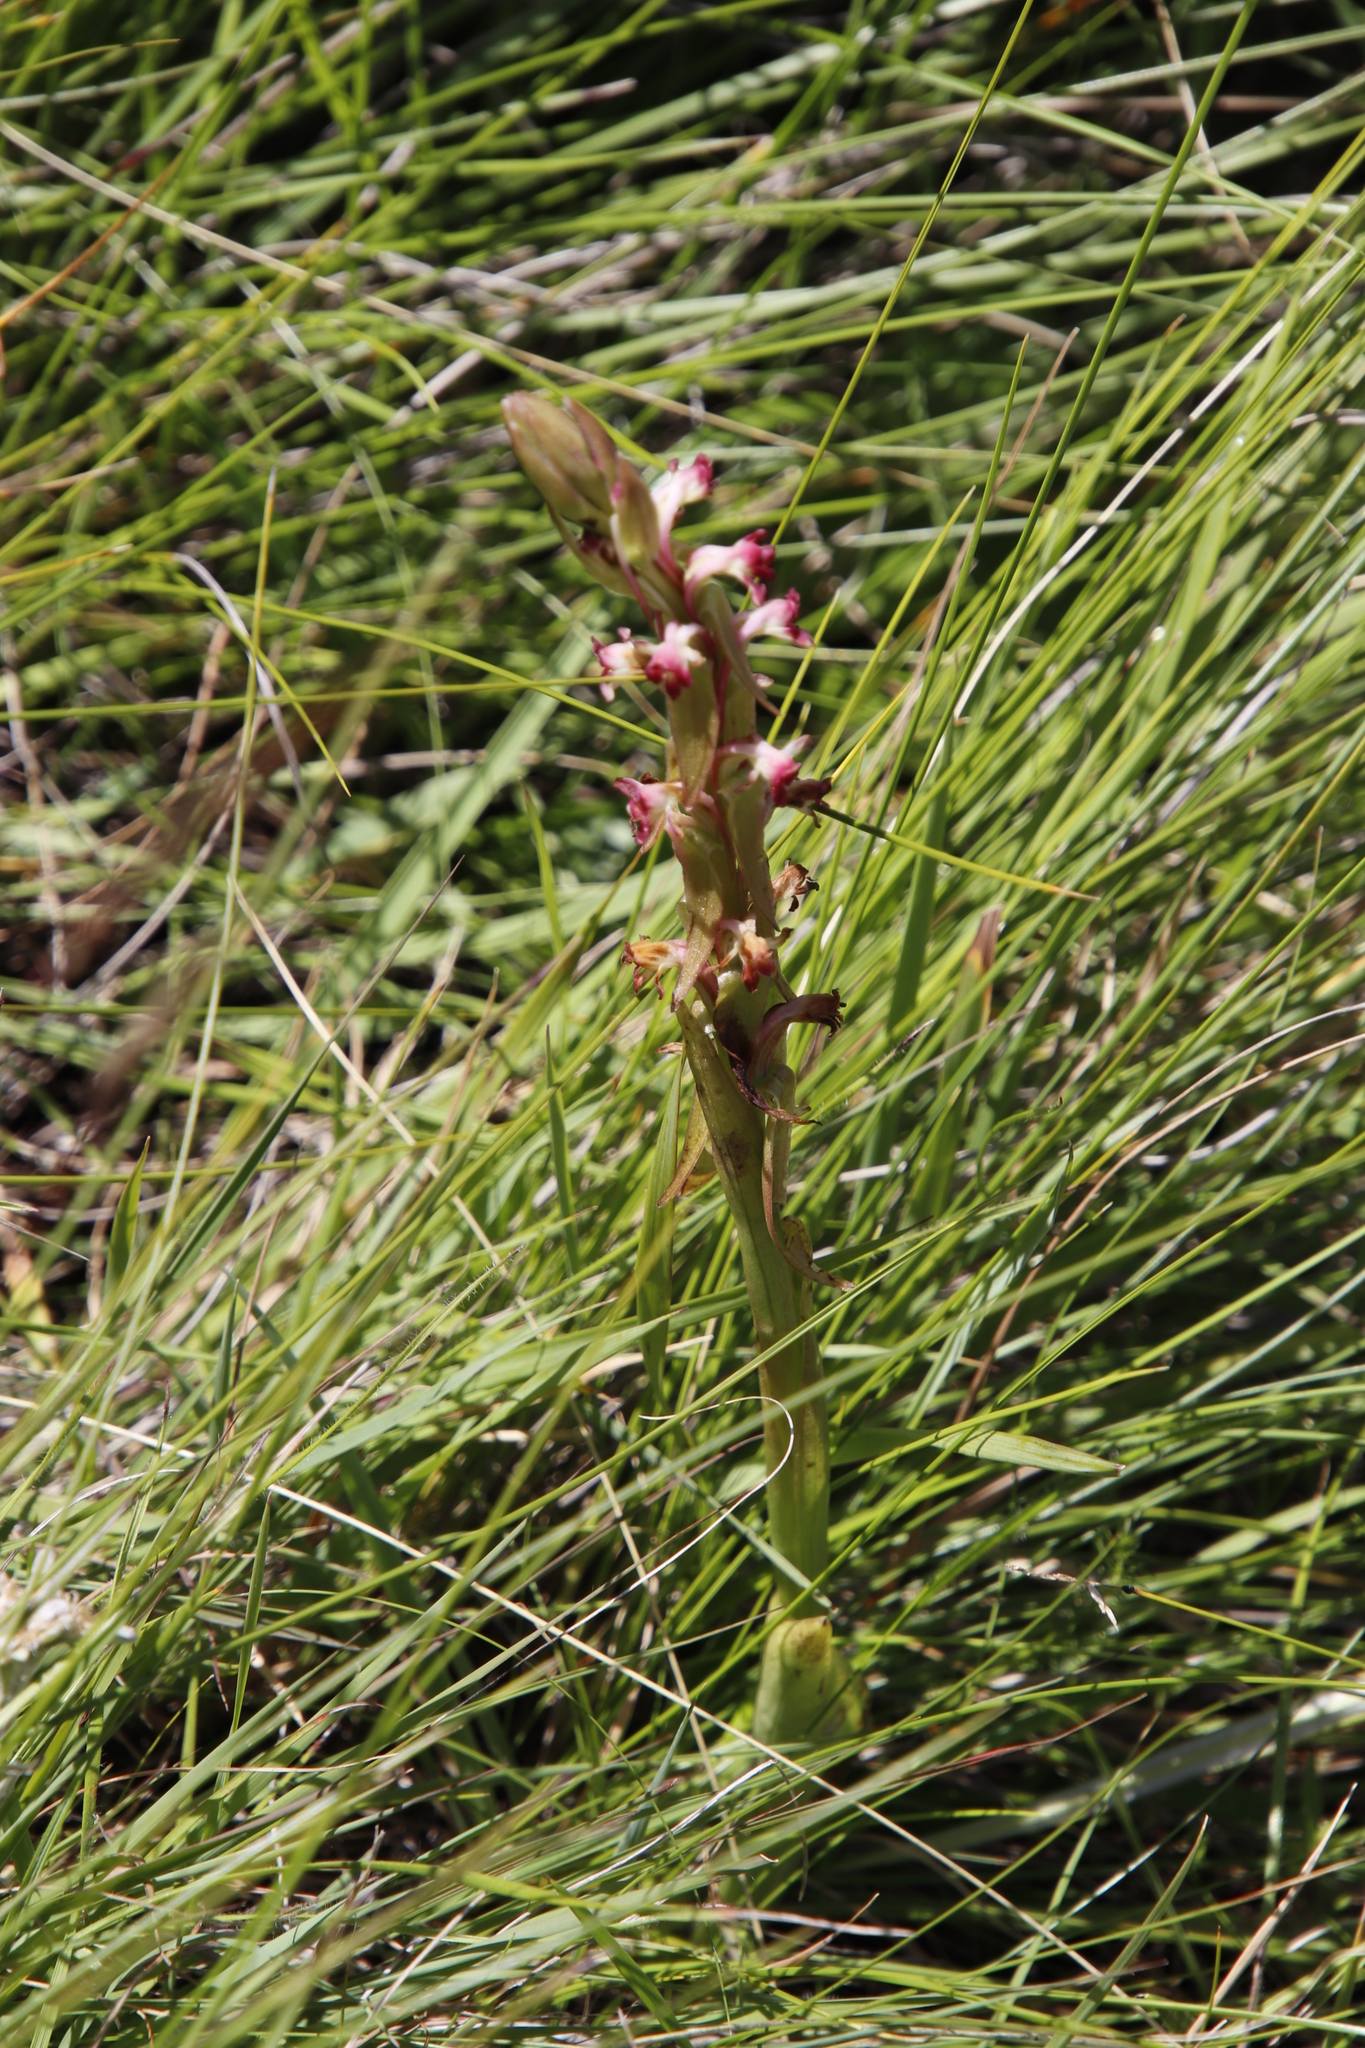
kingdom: Plantae
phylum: Tracheophyta
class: Liliopsida
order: Asparagales
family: Orchidaceae
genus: Satyrium
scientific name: Satyrium longicauda
